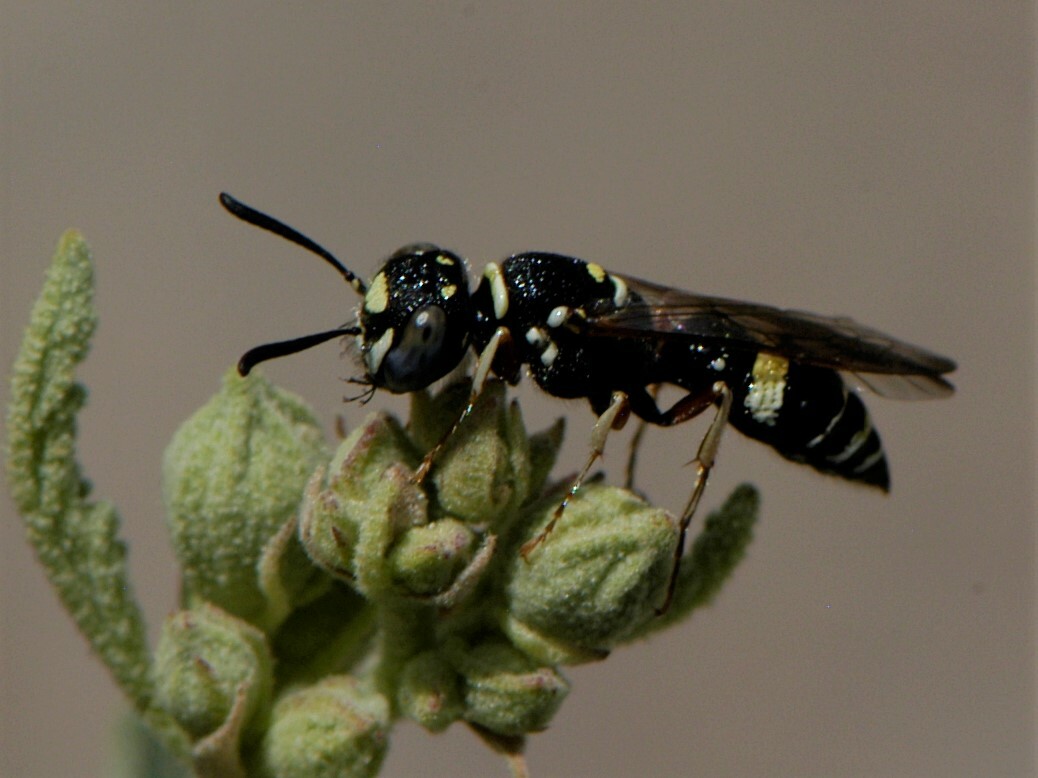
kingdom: Animalia
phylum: Arthropoda
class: Insecta
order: Hymenoptera
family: Crabronidae
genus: Philanthus
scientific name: Philanthus gibbosus
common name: Humped beewolf
